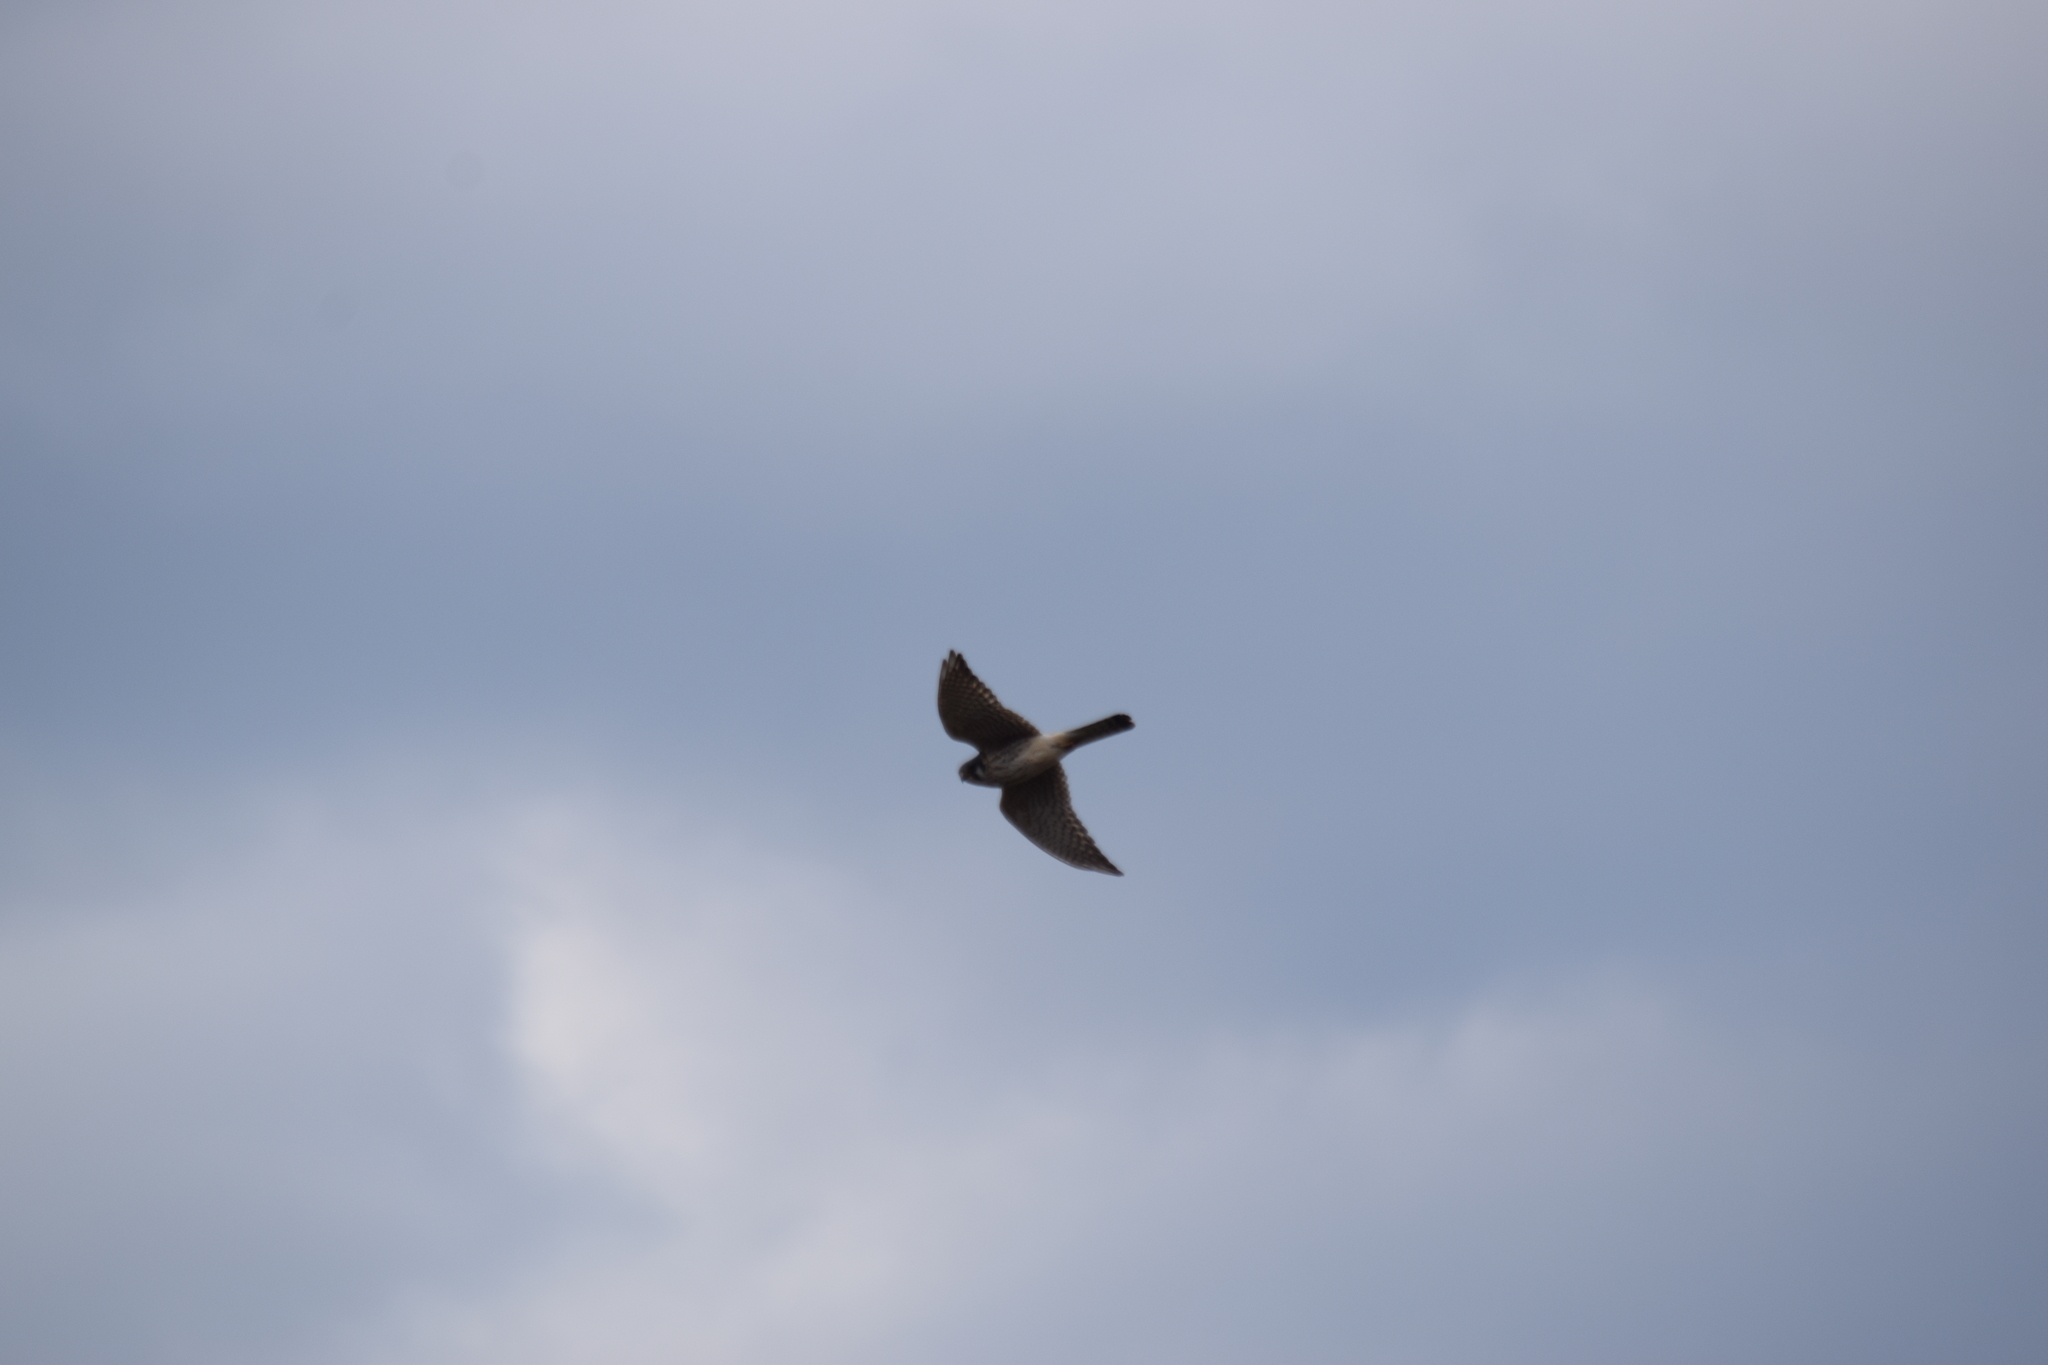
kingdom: Animalia
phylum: Chordata
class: Aves
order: Falconiformes
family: Falconidae
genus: Falco
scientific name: Falco sparverius
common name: American kestrel
